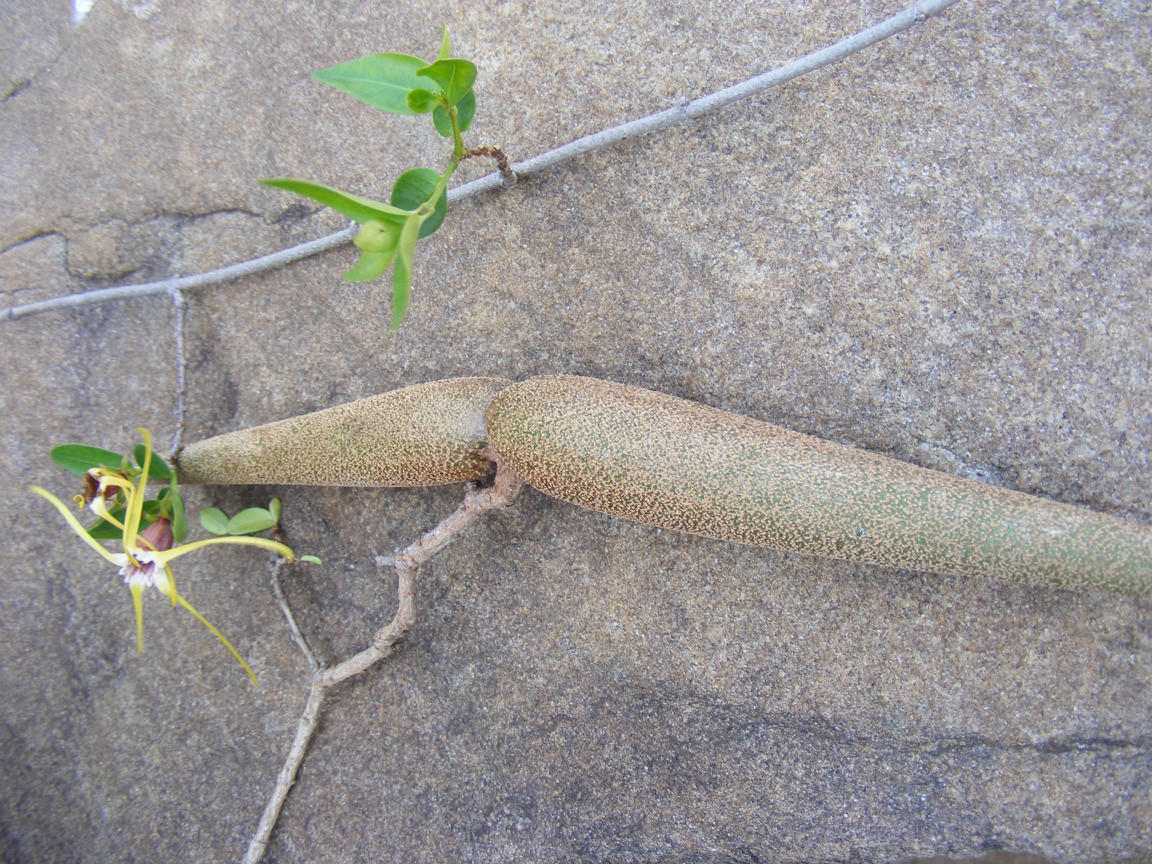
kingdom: Plantae
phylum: Tracheophyta
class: Magnoliopsida
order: Gentianales
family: Apocynaceae
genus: Strophanthus
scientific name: Strophanthus gerrardii
